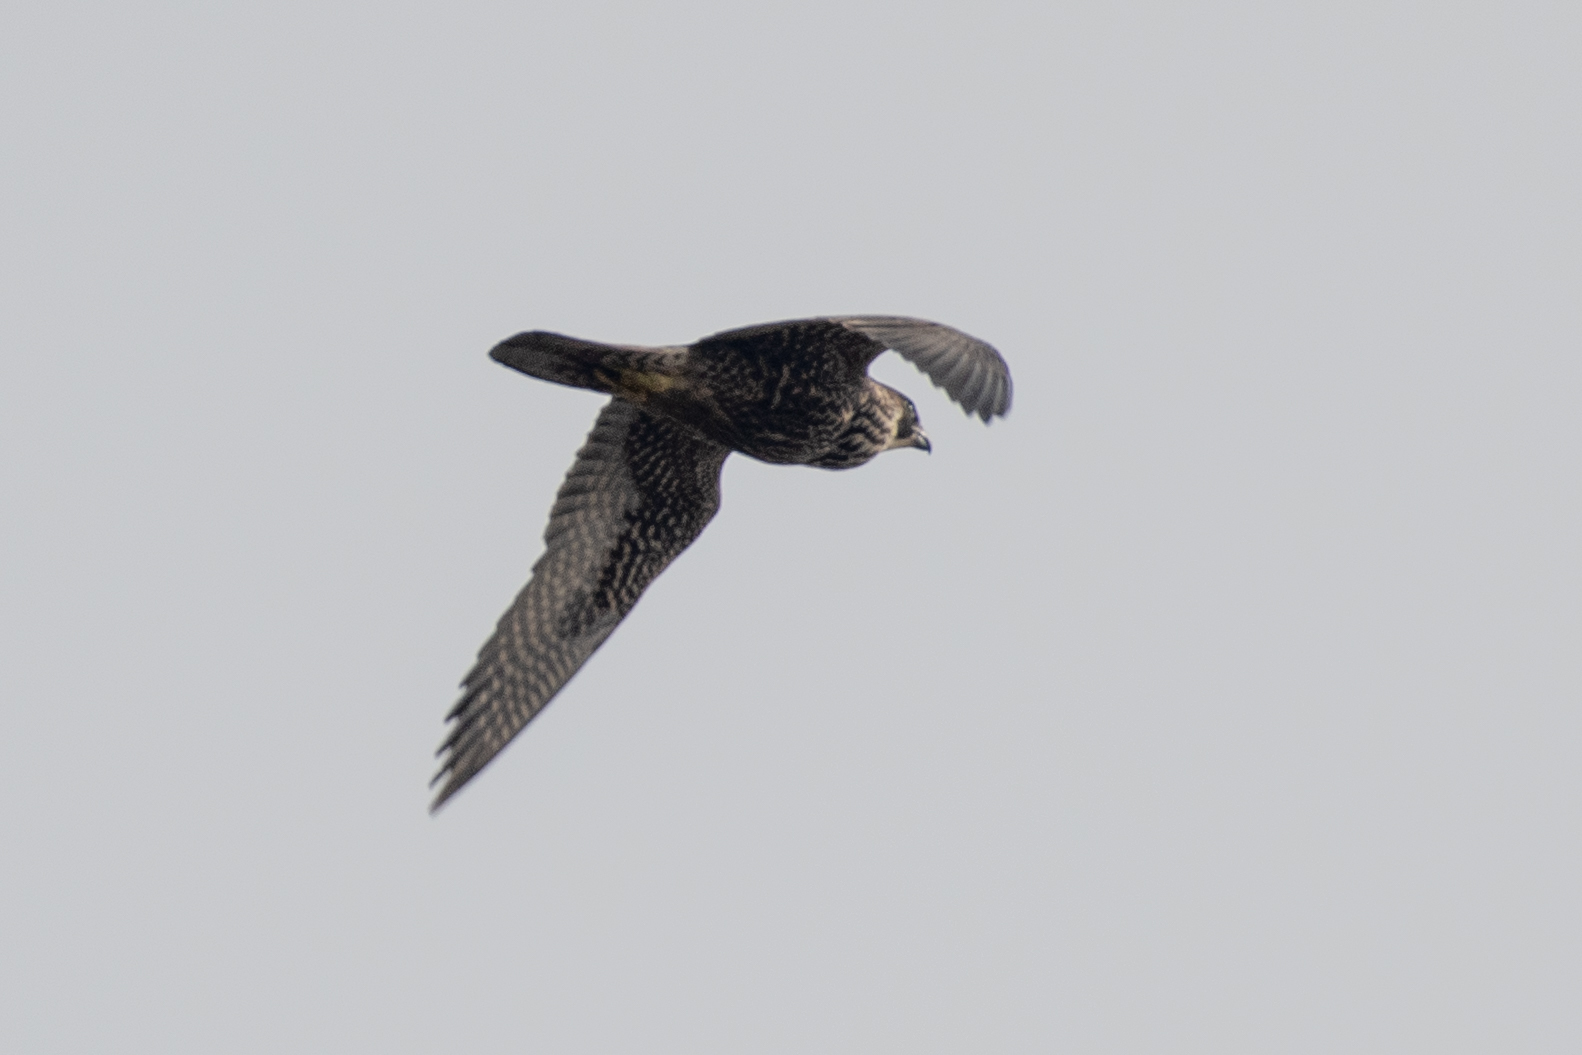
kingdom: Animalia
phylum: Chordata
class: Aves
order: Falconiformes
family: Falconidae
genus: Falco
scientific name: Falco peregrinus
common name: Peregrine falcon
